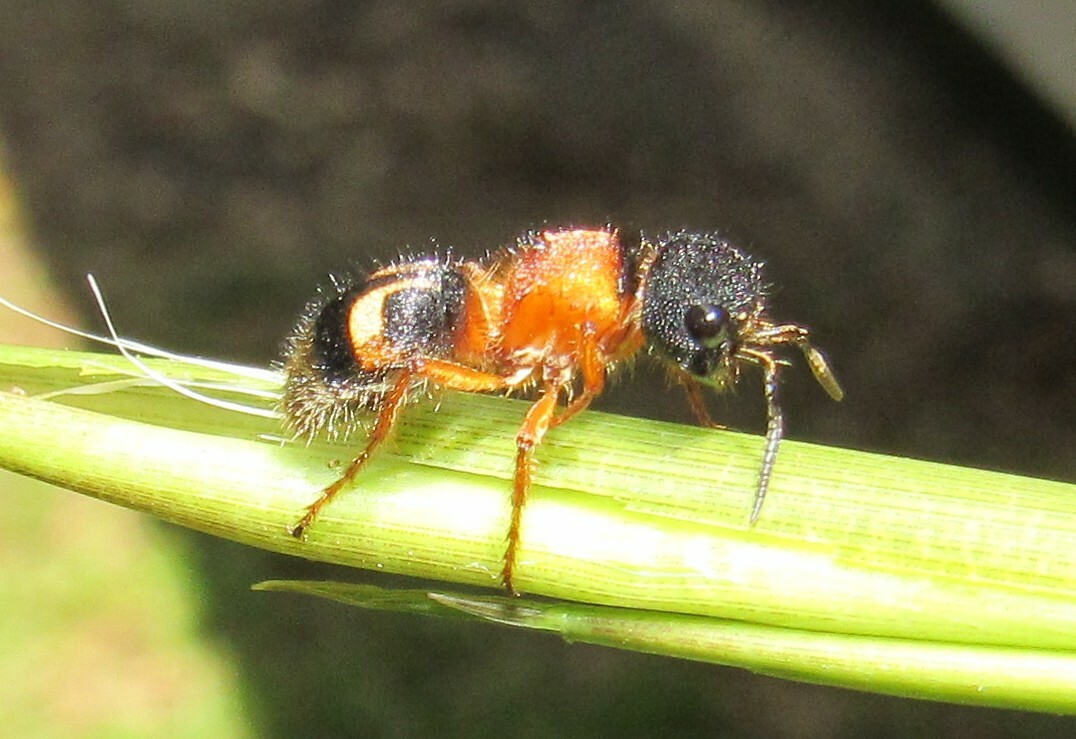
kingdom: Animalia
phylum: Arthropoda
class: Insecta
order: Hymenoptera
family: Mutillidae
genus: Pseudomethoca
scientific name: Pseudomethoca
